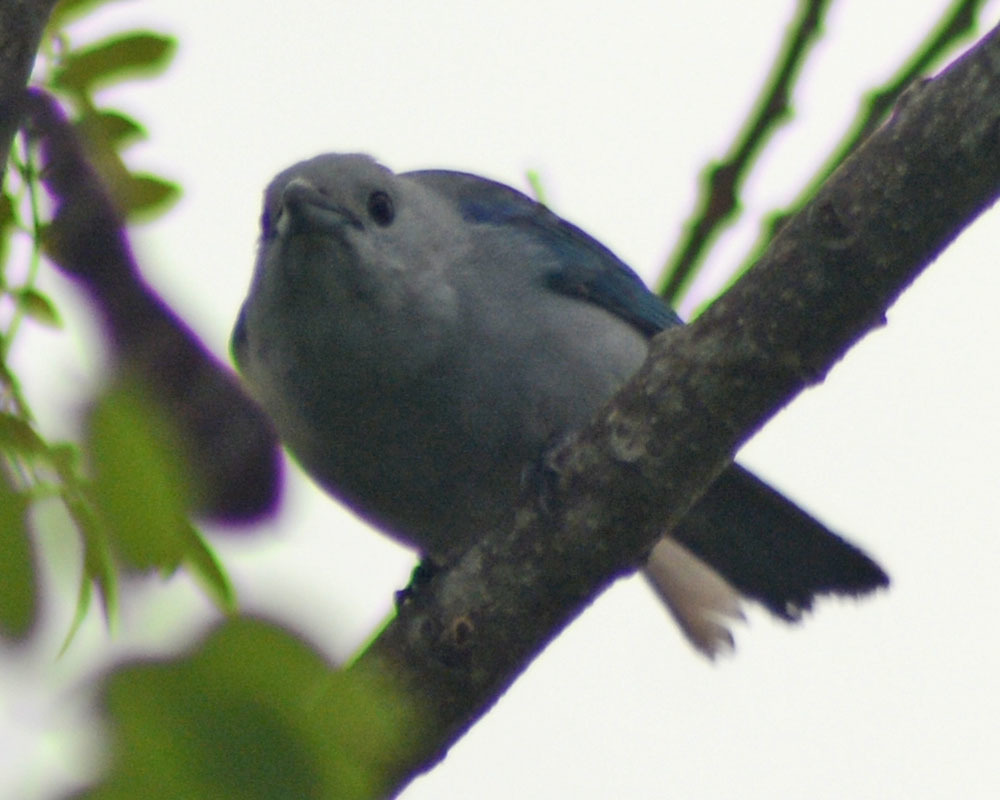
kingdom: Animalia
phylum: Chordata
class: Aves
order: Passeriformes
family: Thraupidae
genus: Thraupis
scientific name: Thraupis episcopus
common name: Blue-grey tanager
